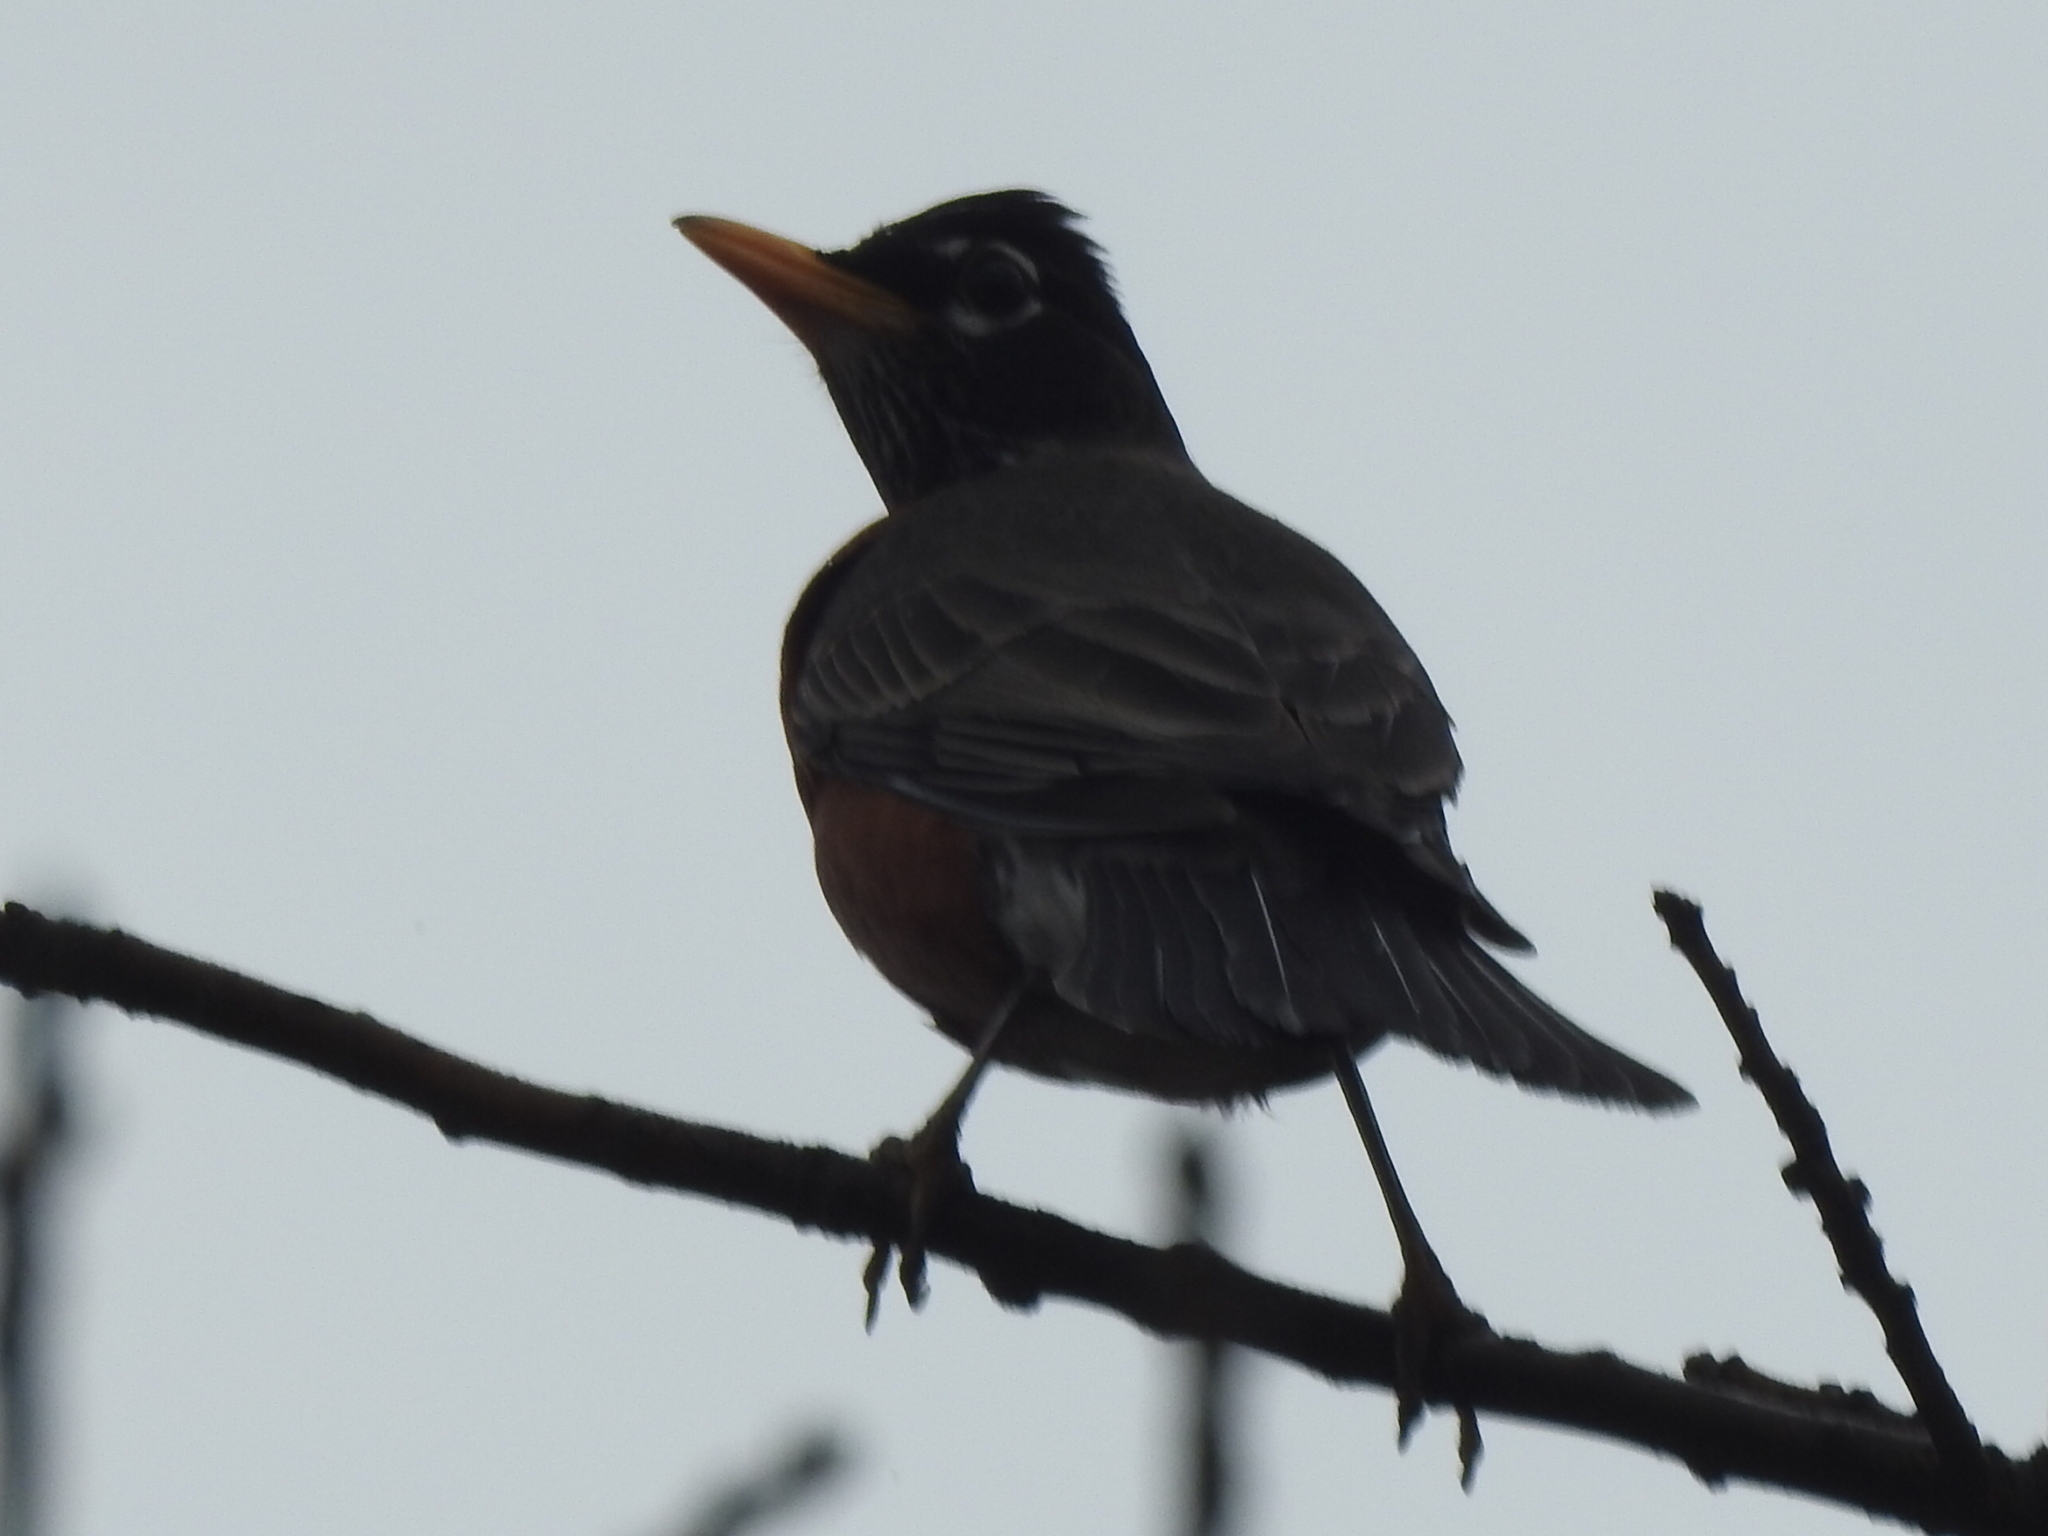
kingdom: Animalia
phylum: Chordata
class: Aves
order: Passeriformes
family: Turdidae
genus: Turdus
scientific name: Turdus migratorius
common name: American robin
